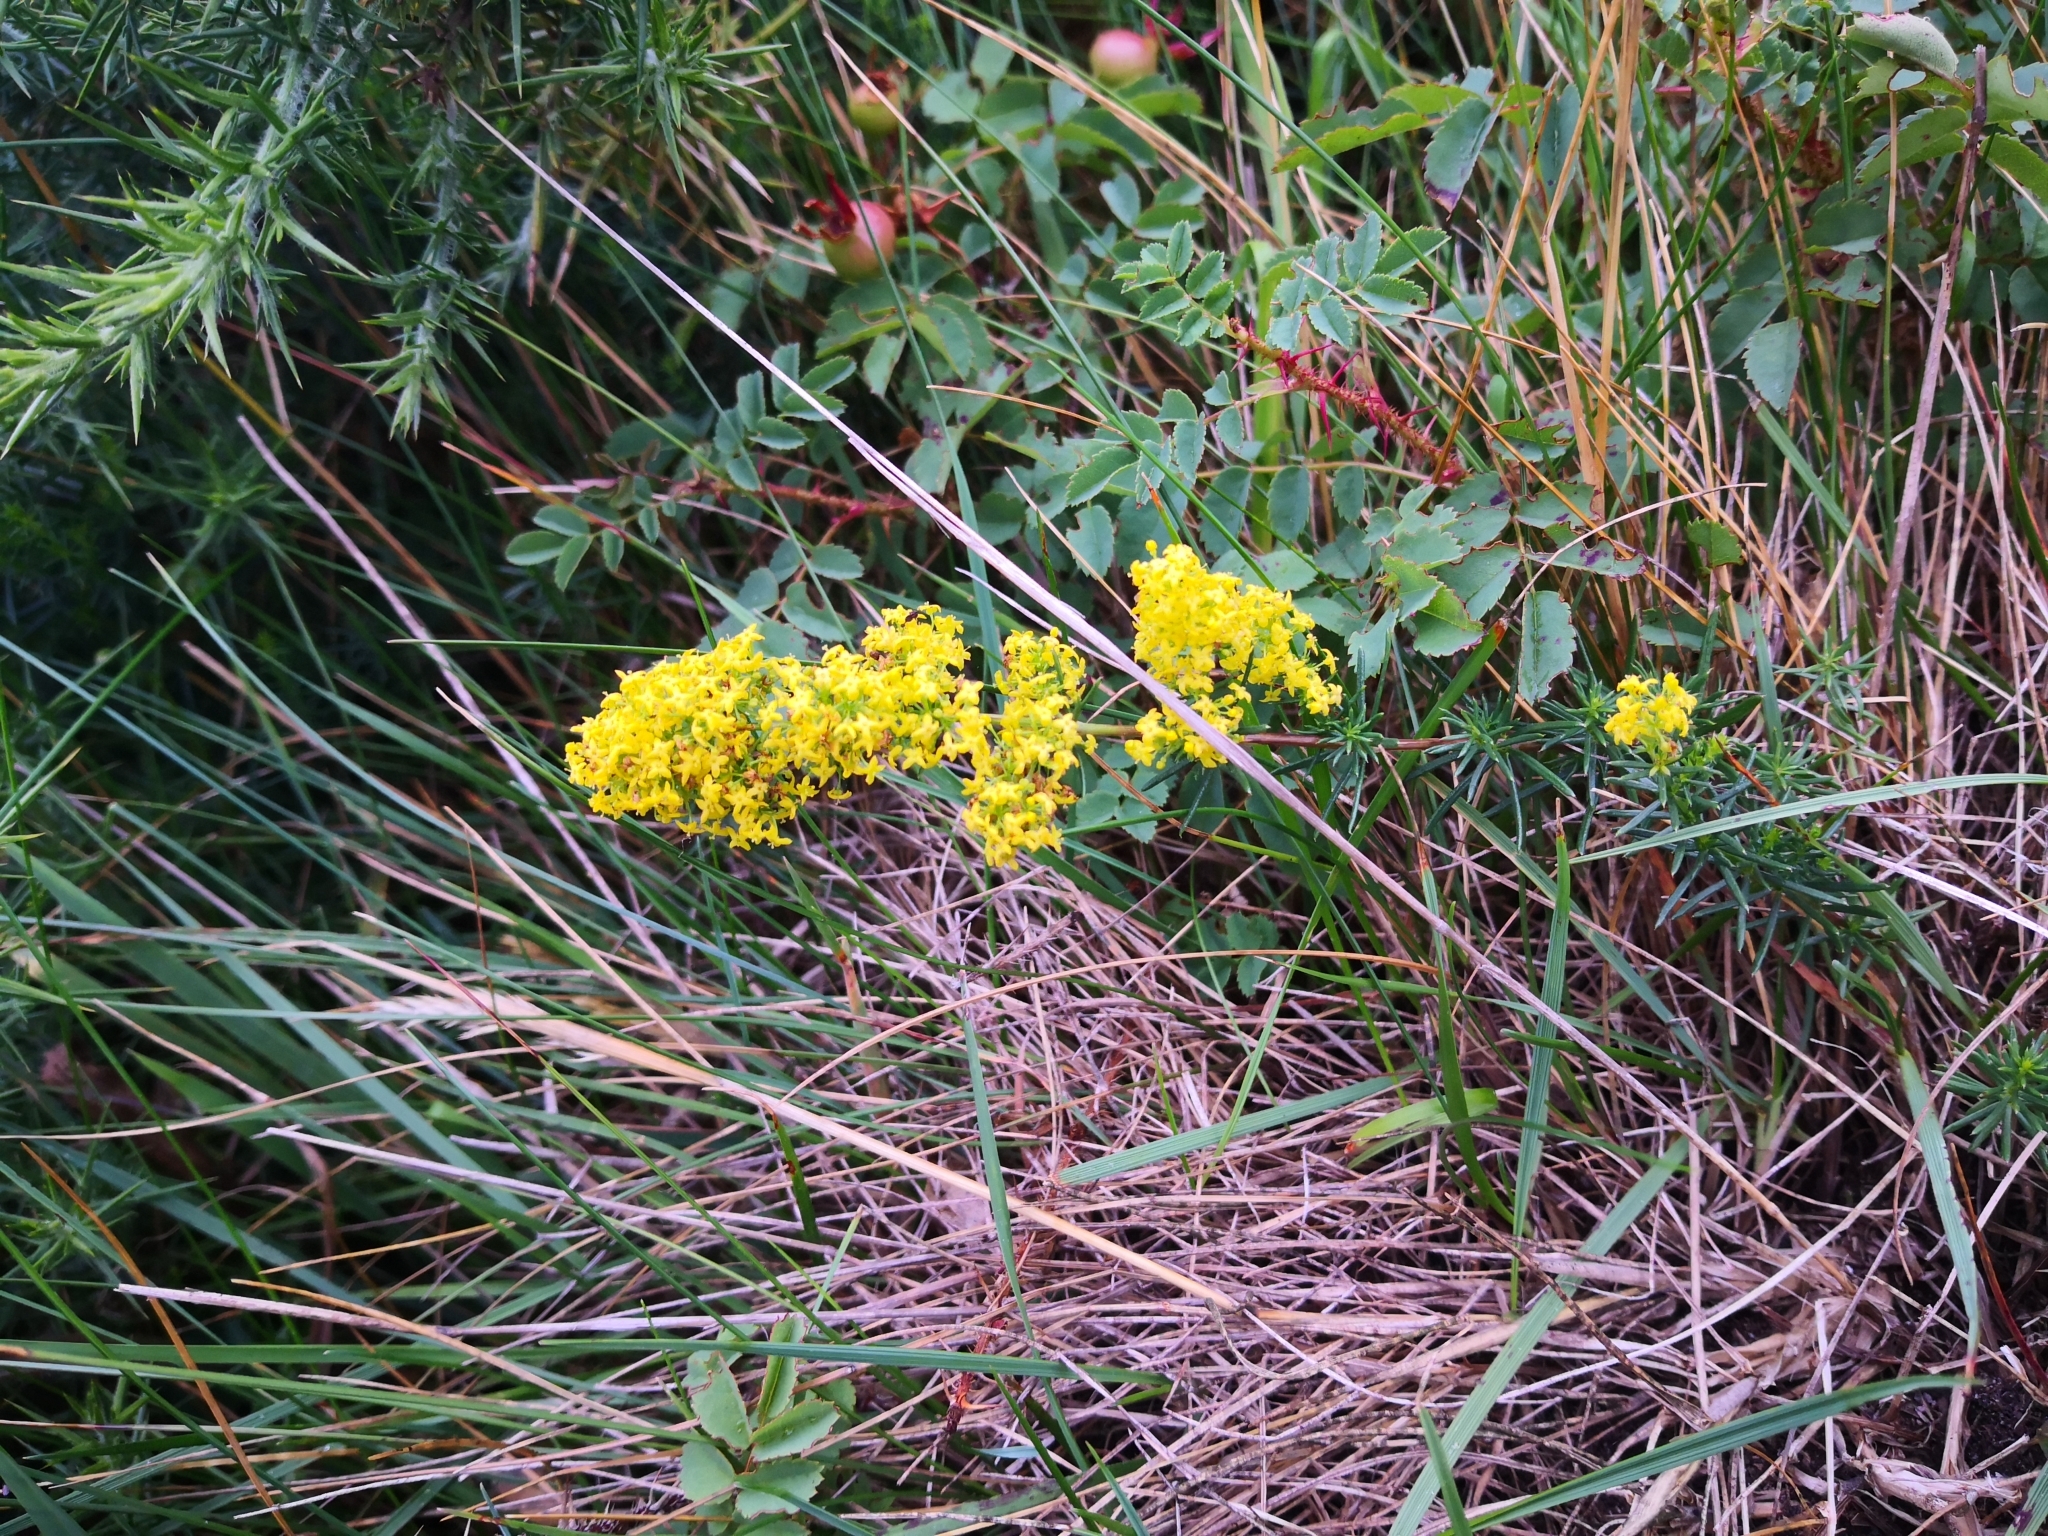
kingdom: Plantae
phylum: Tracheophyta
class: Magnoliopsida
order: Gentianales
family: Rubiaceae
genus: Galium
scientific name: Galium verum
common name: Lady's bedstraw
